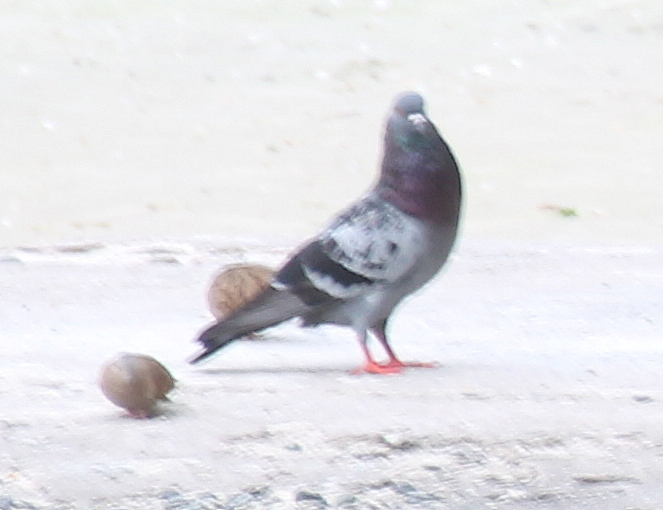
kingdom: Animalia
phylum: Chordata
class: Aves
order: Columbiformes
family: Columbidae
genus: Columba
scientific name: Columba livia
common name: Rock pigeon
